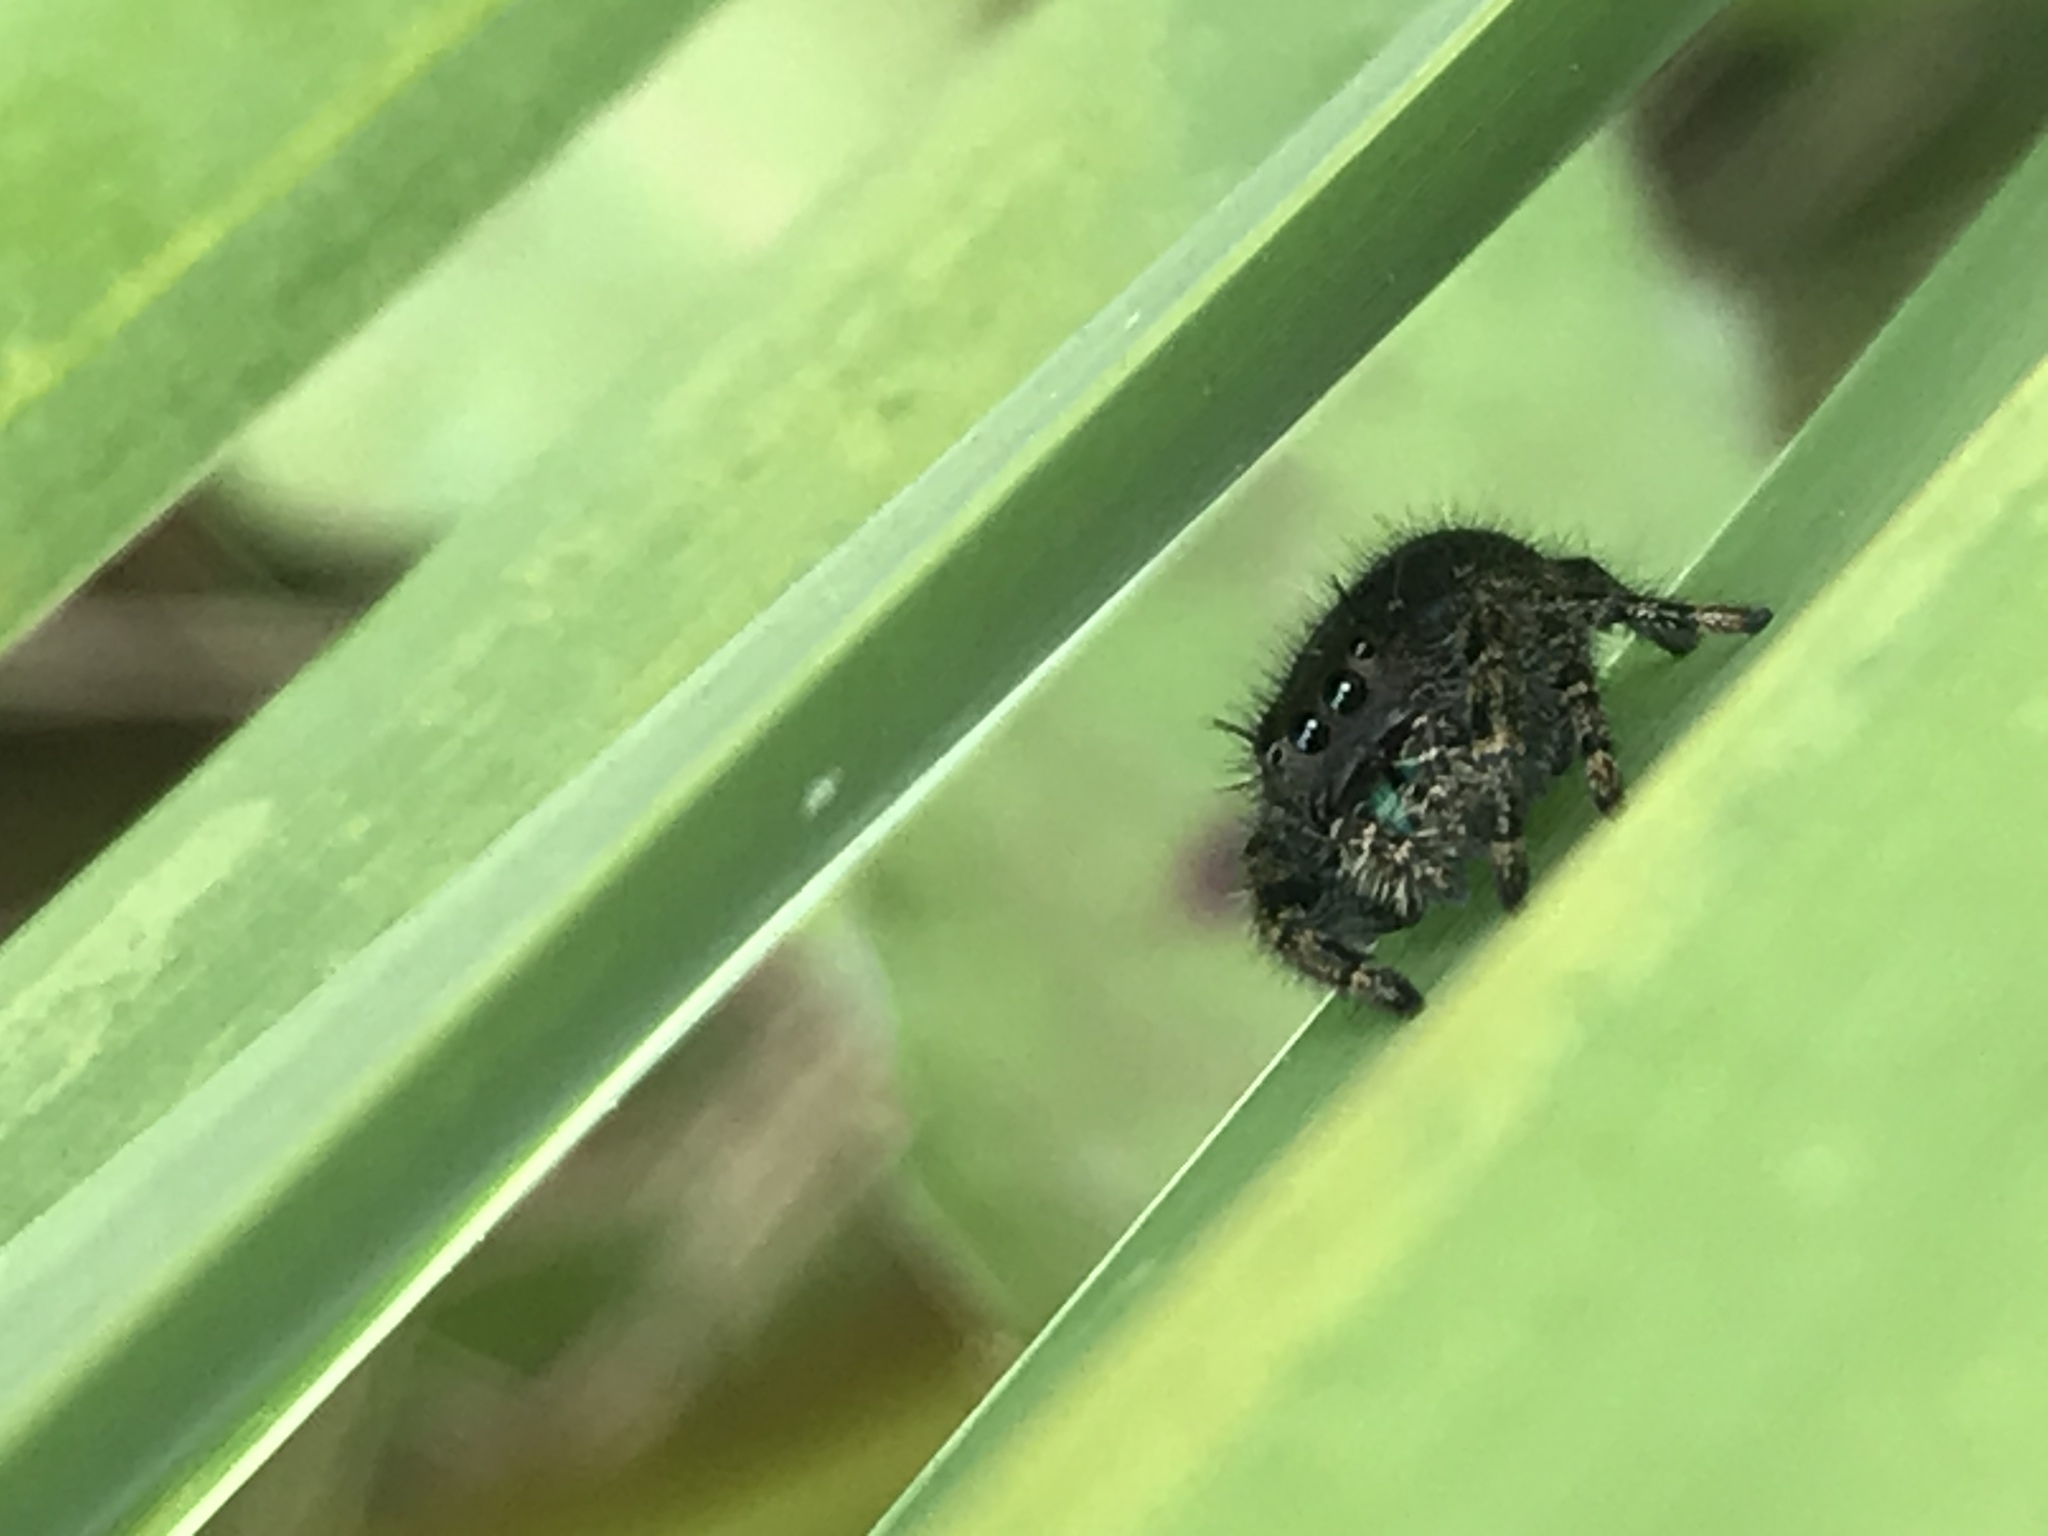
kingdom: Animalia
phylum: Arthropoda
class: Arachnida
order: Araneae
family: Salticidae
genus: Phidippus
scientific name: Phidippus audax
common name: Bold jumper
